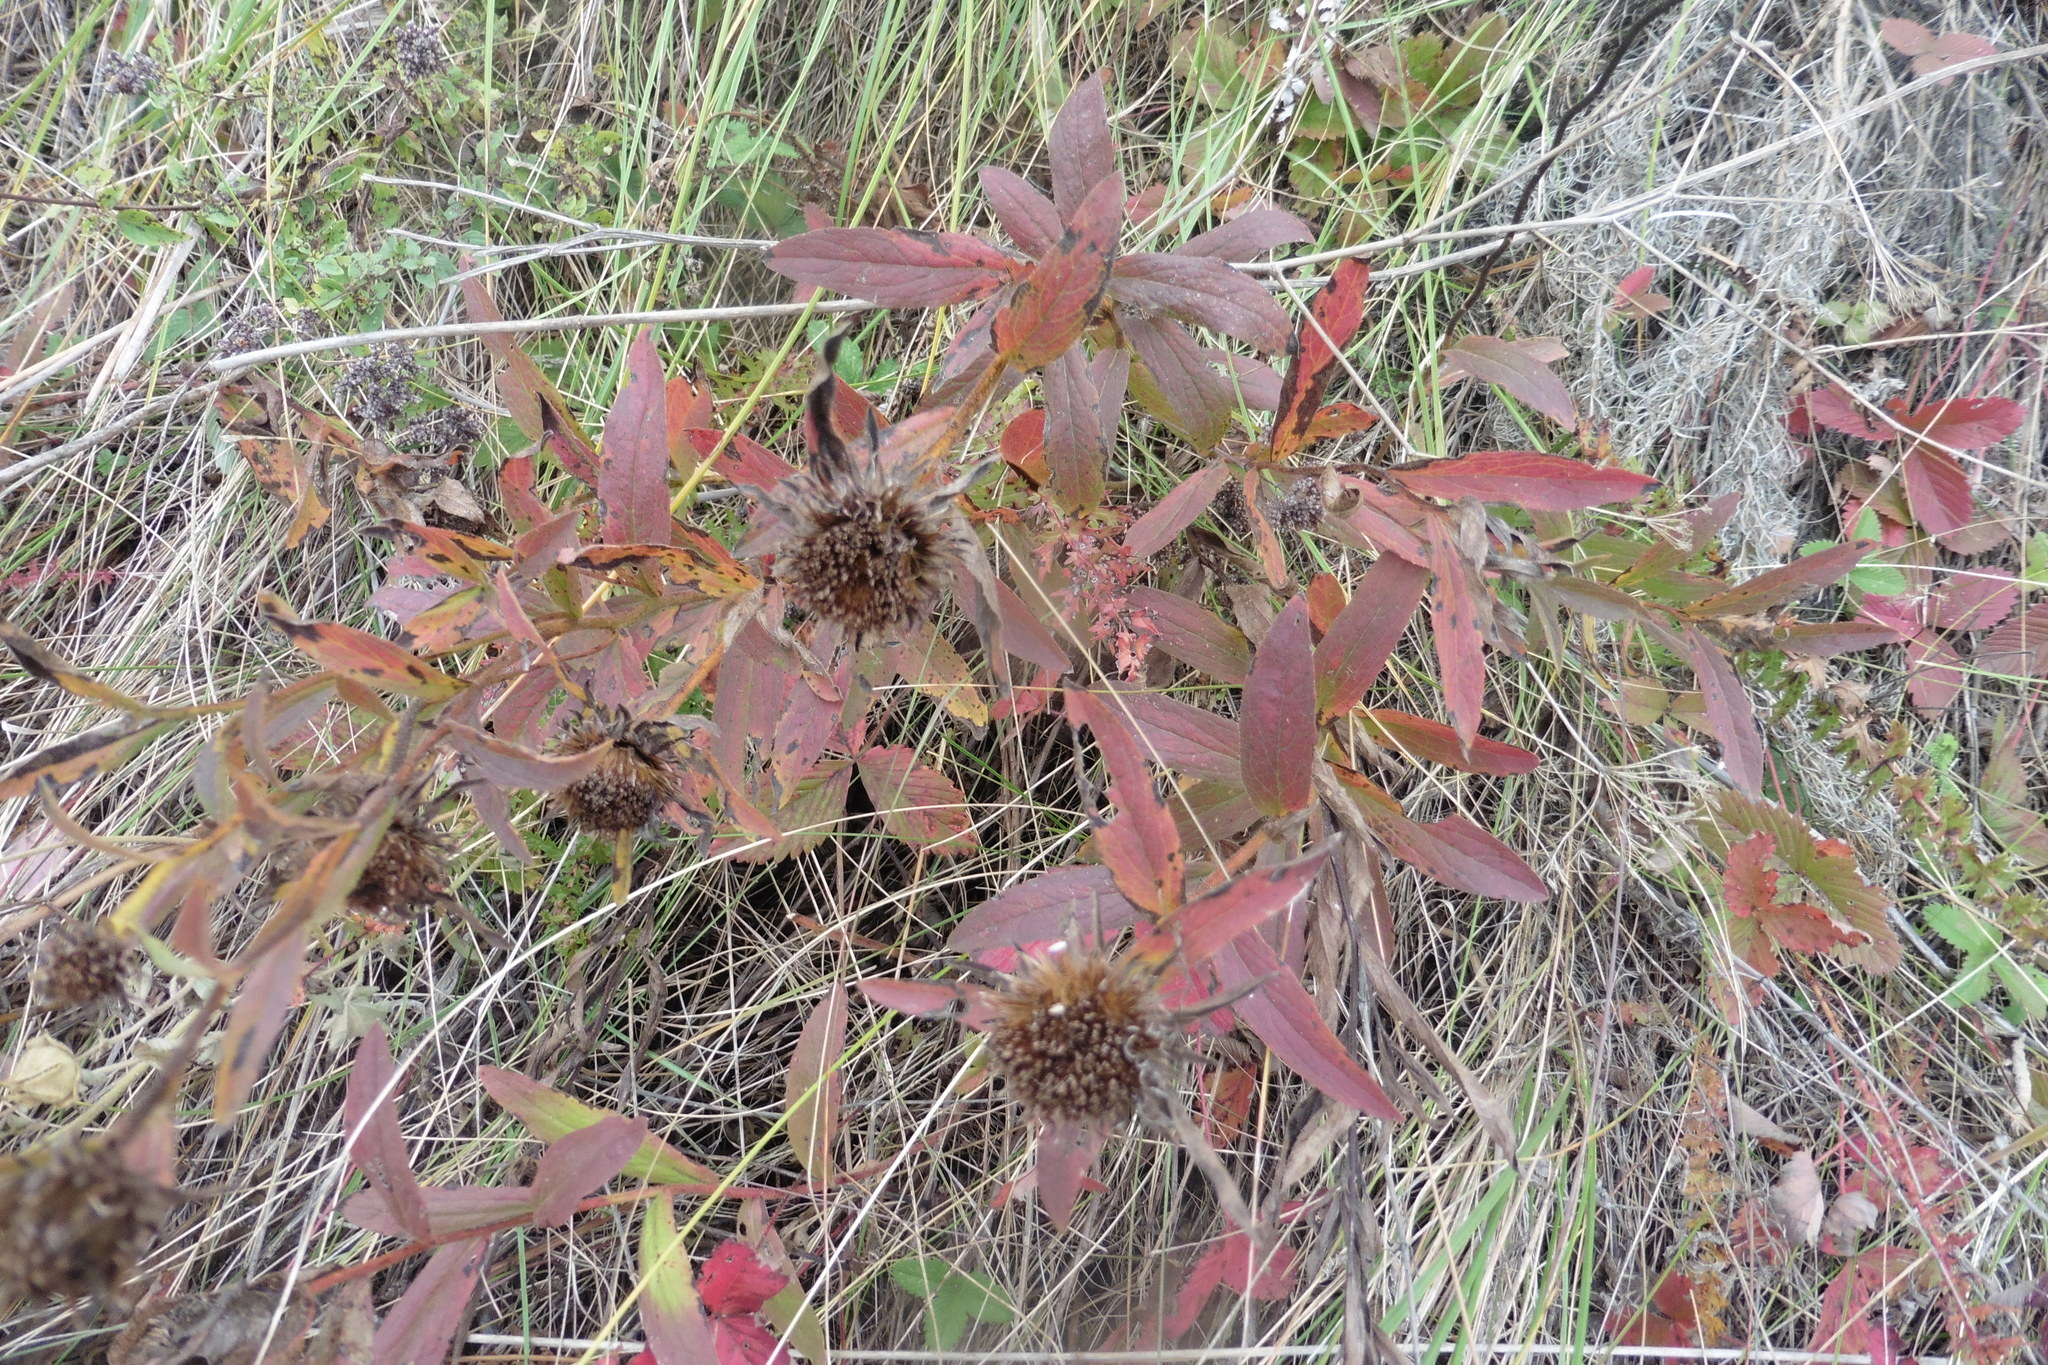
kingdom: Plantae
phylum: Tracheophyta
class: Magnoliopsida
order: Asterales
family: Asteraceae
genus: Pentanema
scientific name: Pentanema hirtum
